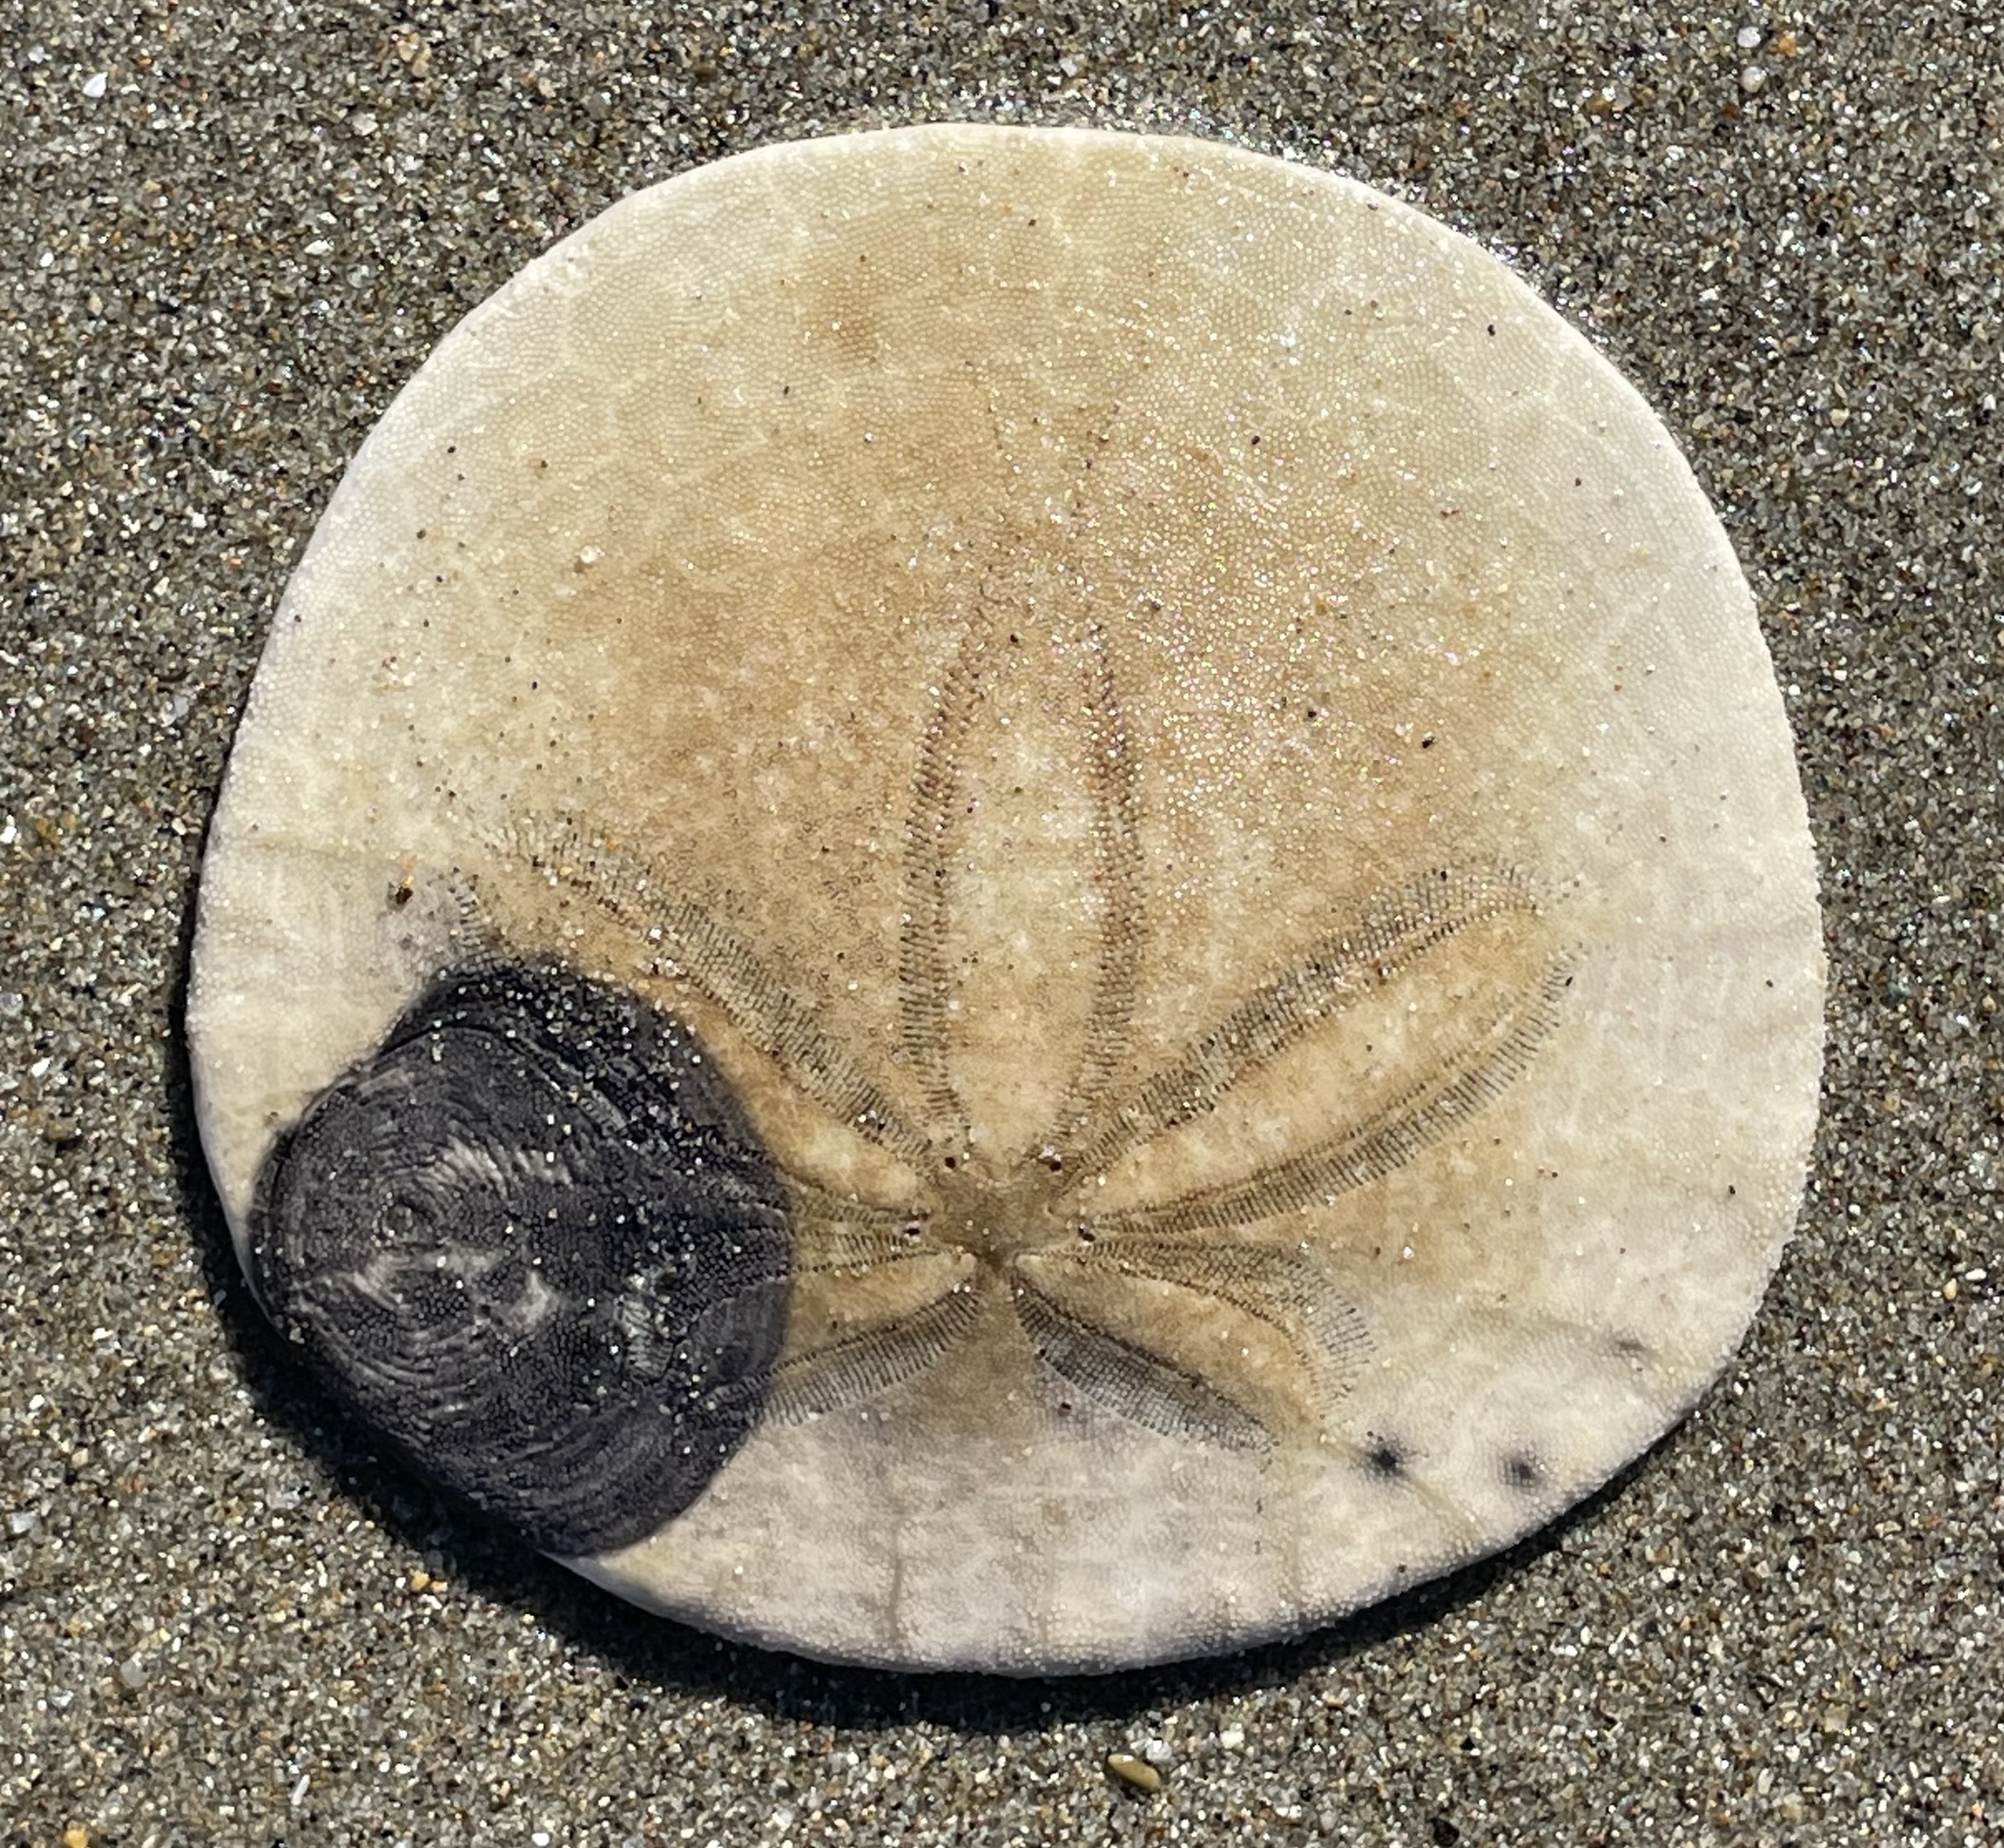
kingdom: Animalia
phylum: Echinodermata
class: Echinoidea
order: Echinolampadacea
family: Dendrasteridae
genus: Dendraster
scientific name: Dendraster excentricus
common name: Eccentric sand dollar sea urchin
